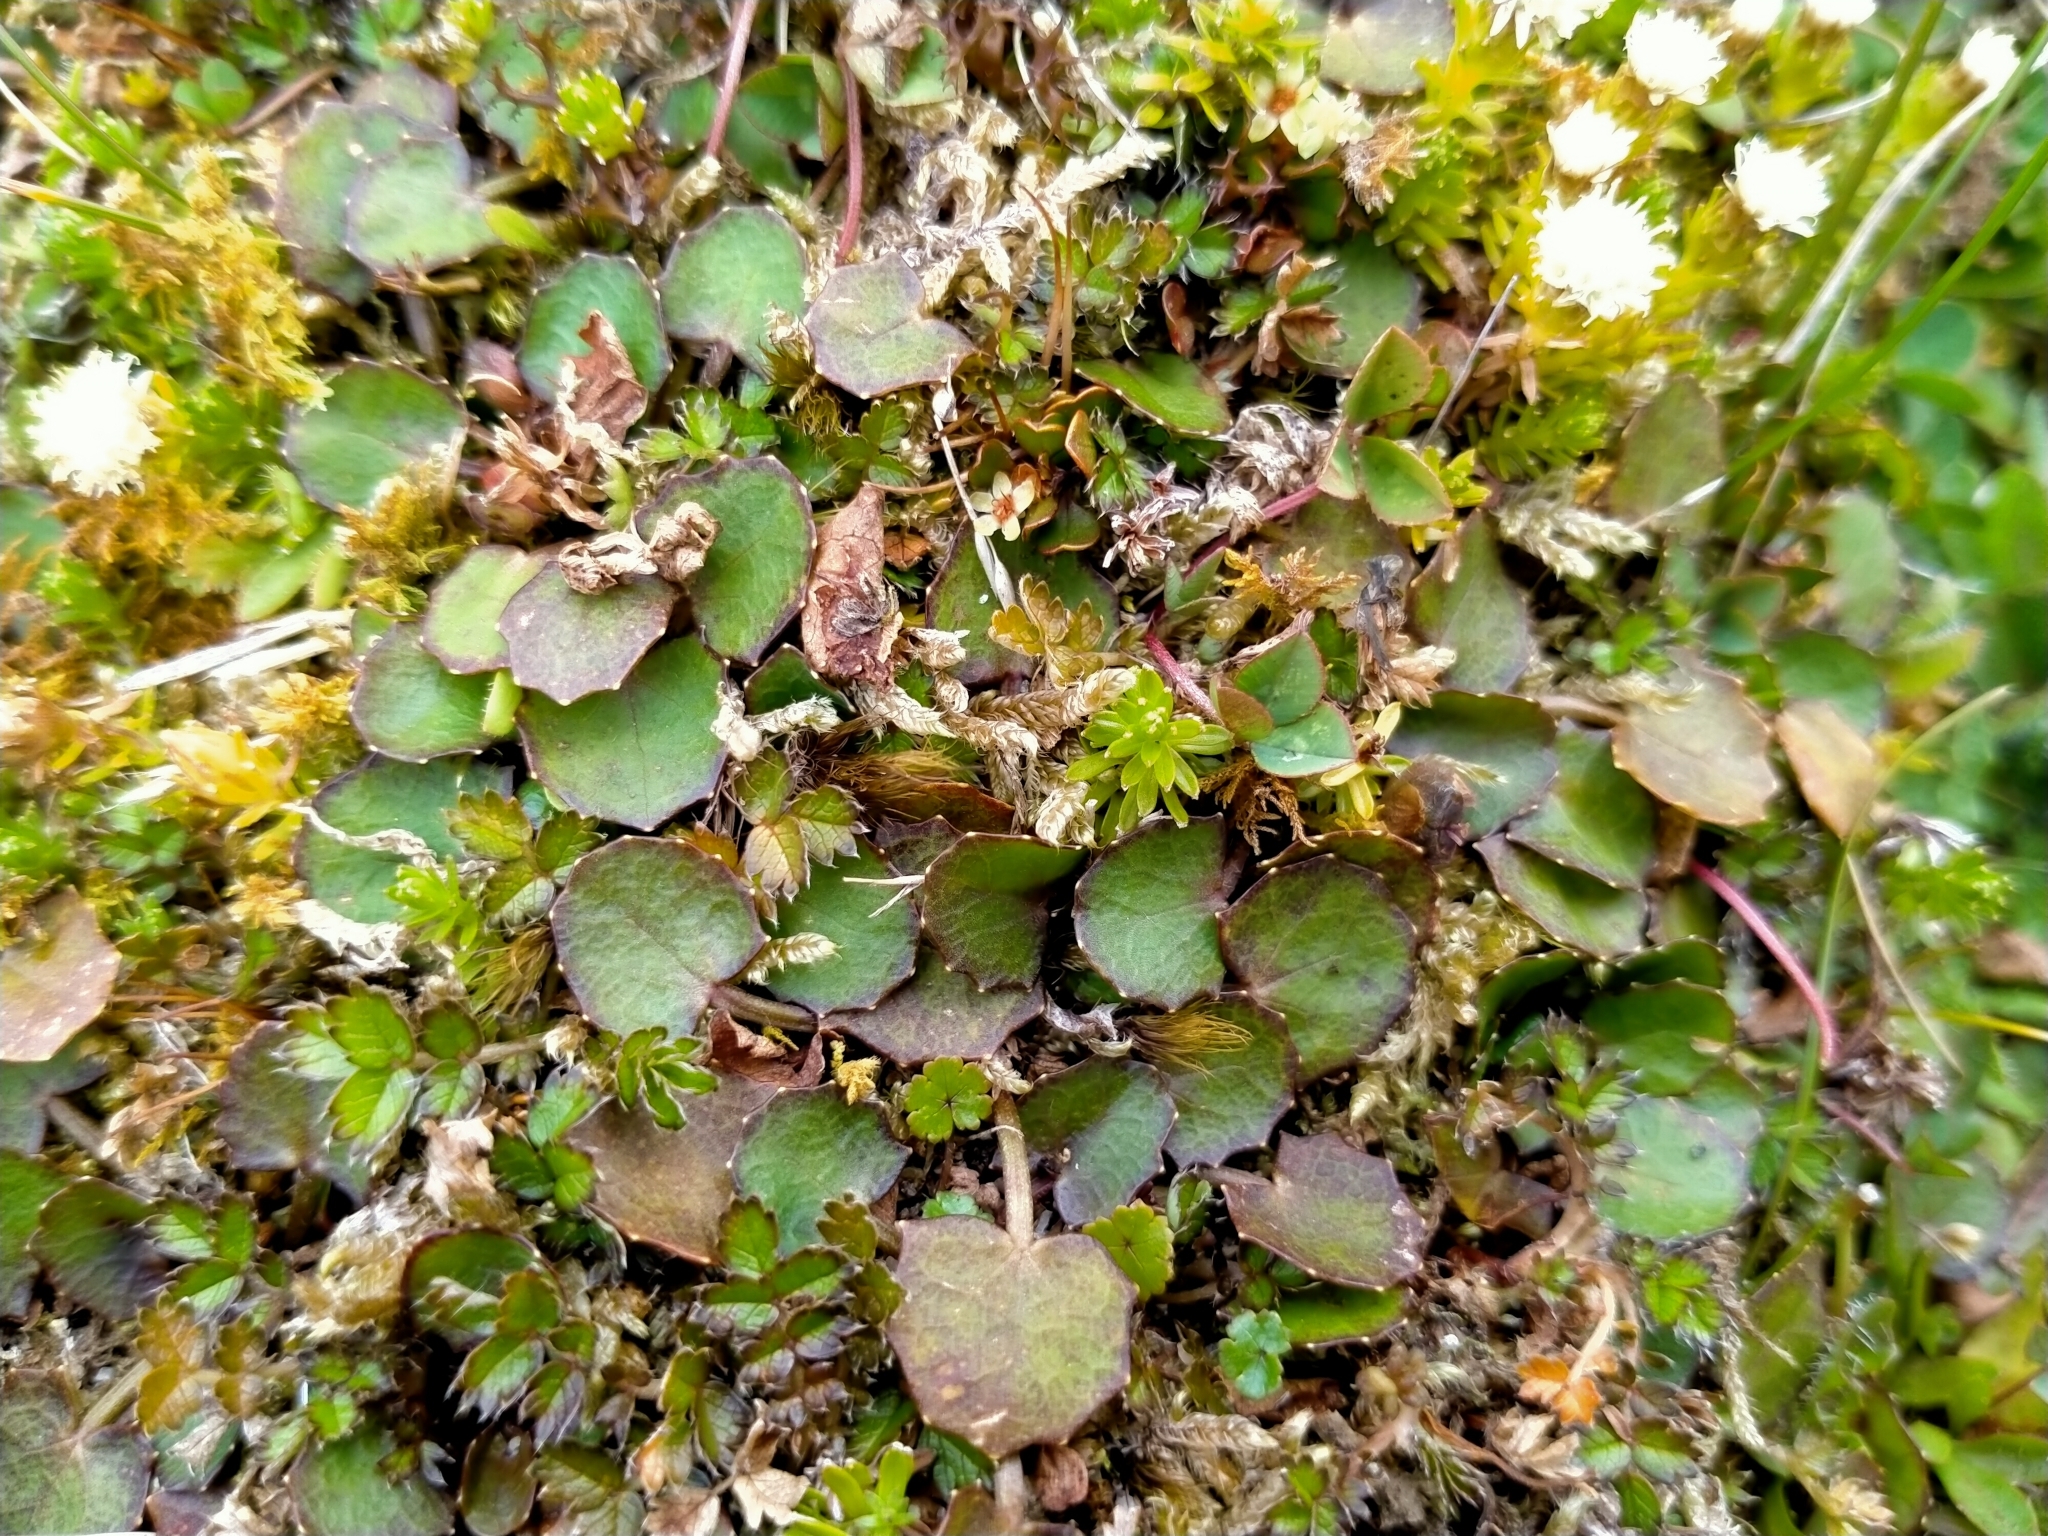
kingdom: Plantae
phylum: Tracheophyta
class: Magnoliopsida
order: Apiales
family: Apiaceae
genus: Centella
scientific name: Centella uniflora
